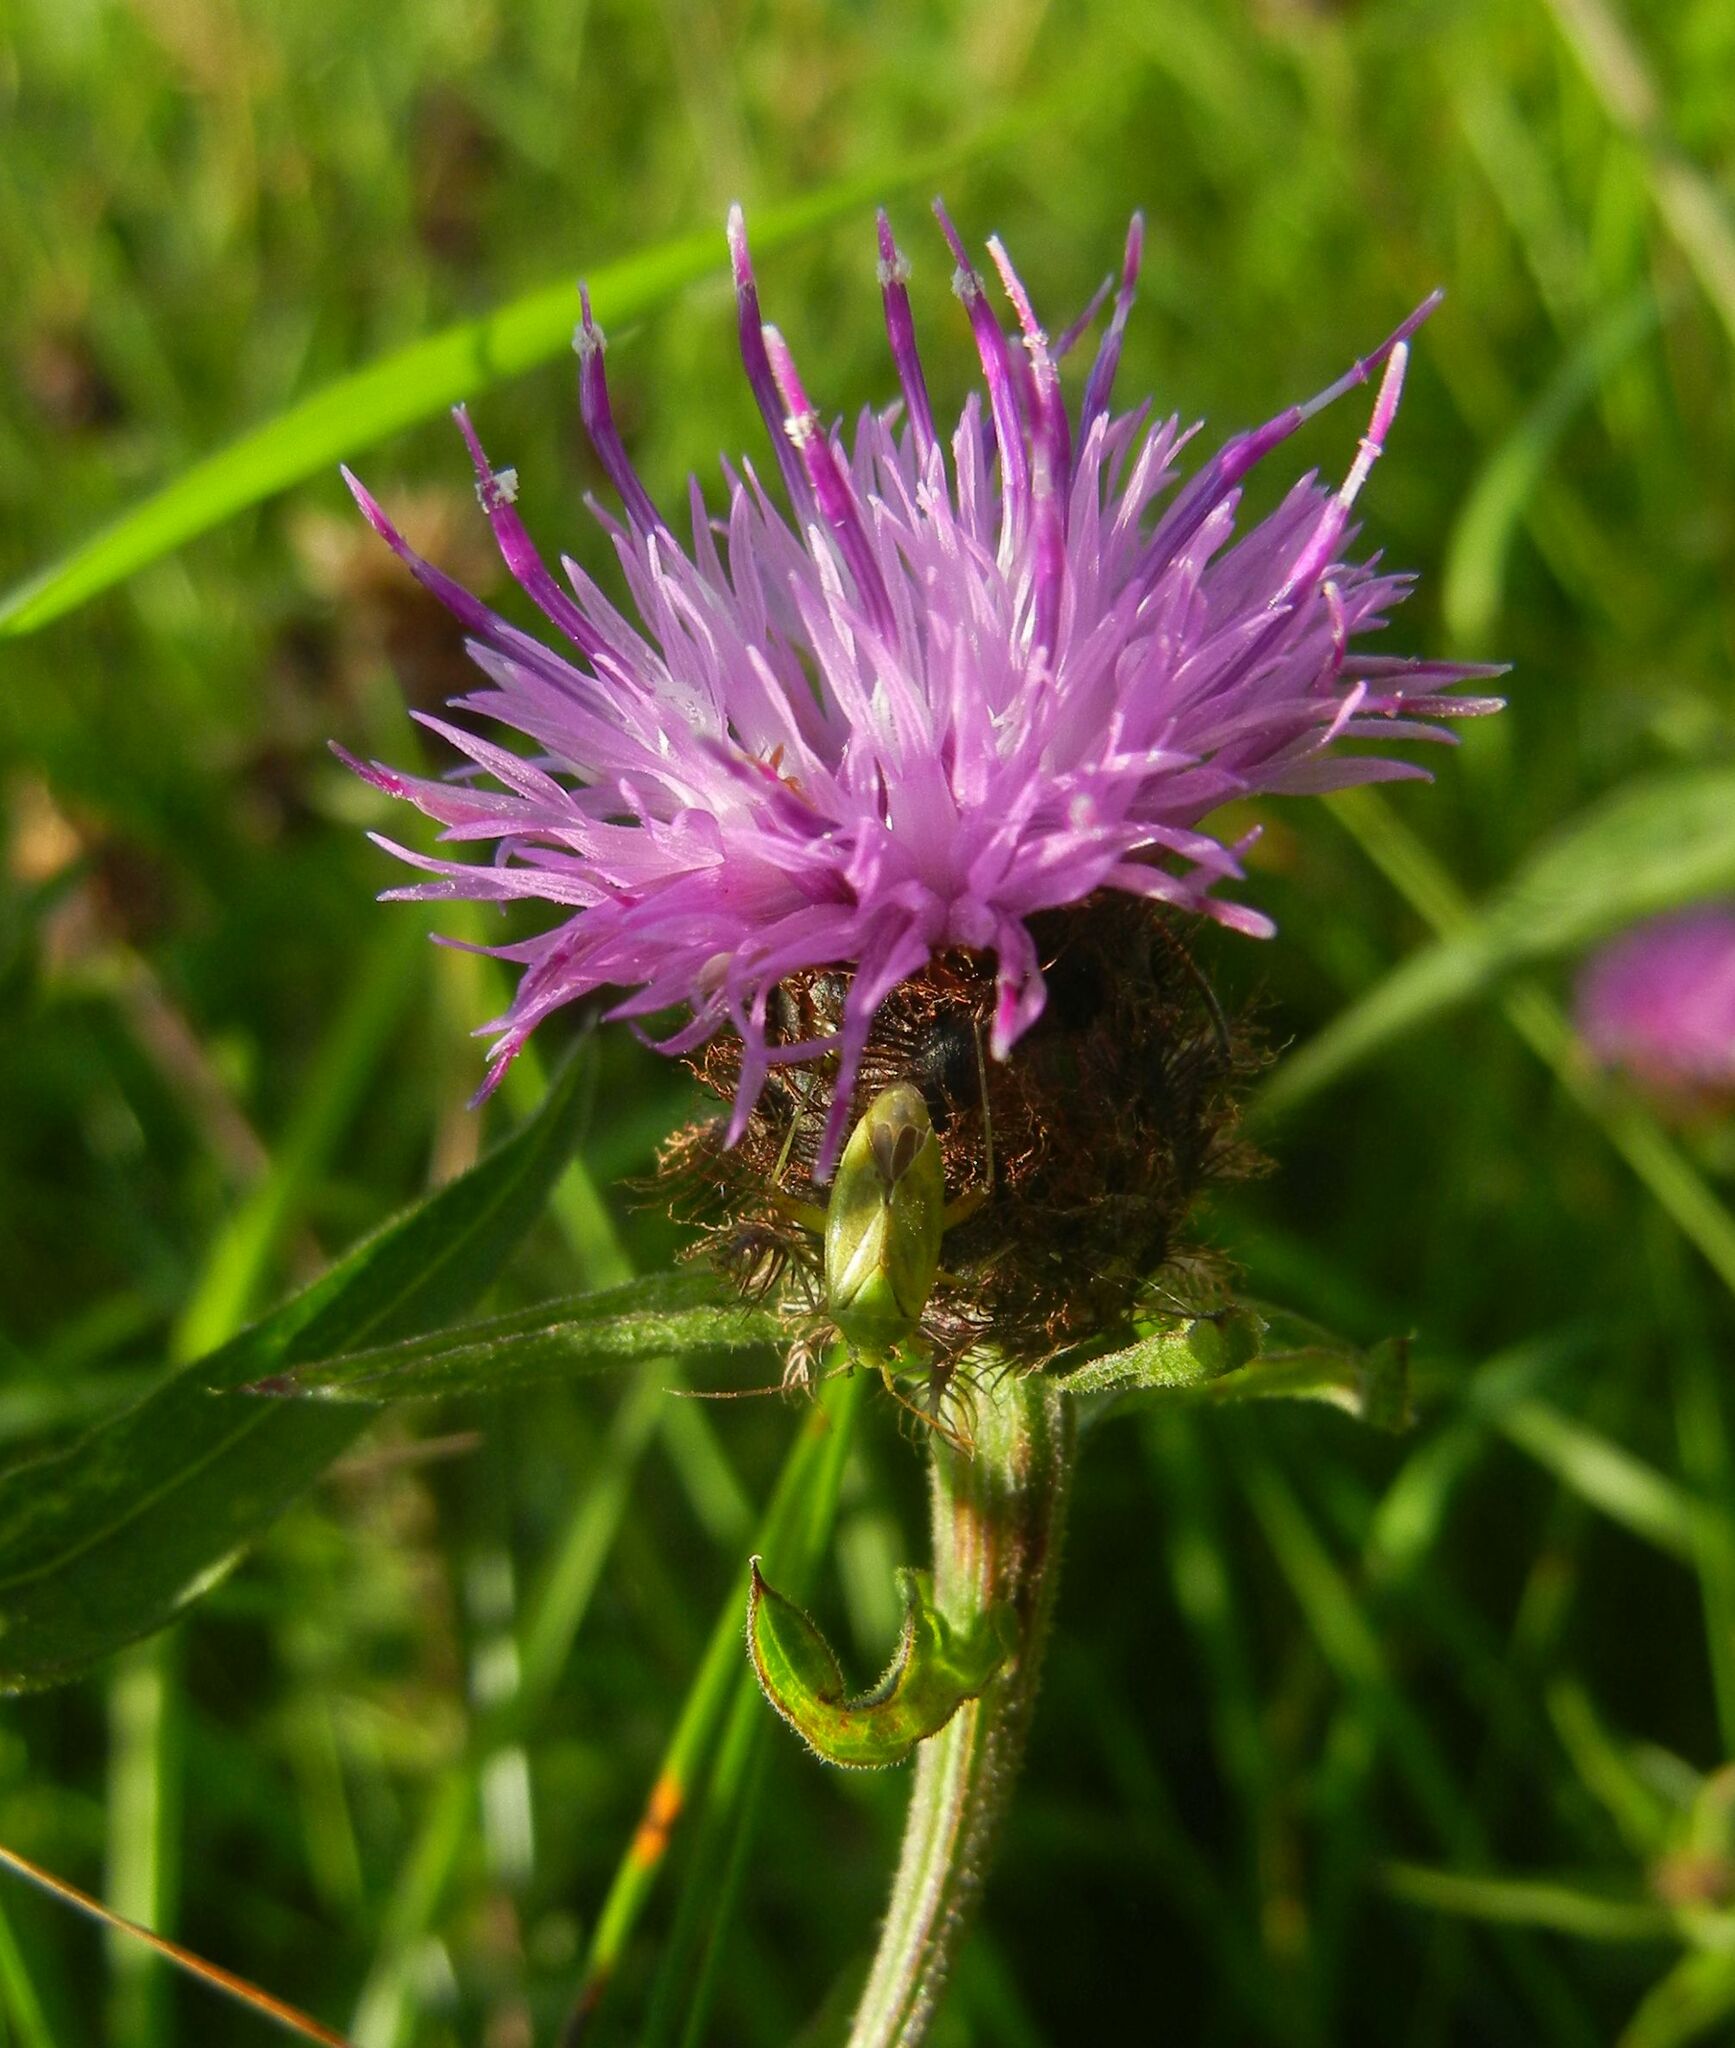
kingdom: Plantae
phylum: Tracheophyta
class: Magnoliopsida
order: Asterales
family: Asteraceae
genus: Centaurea
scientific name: Centaurea nigra
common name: Lesser knapweed
